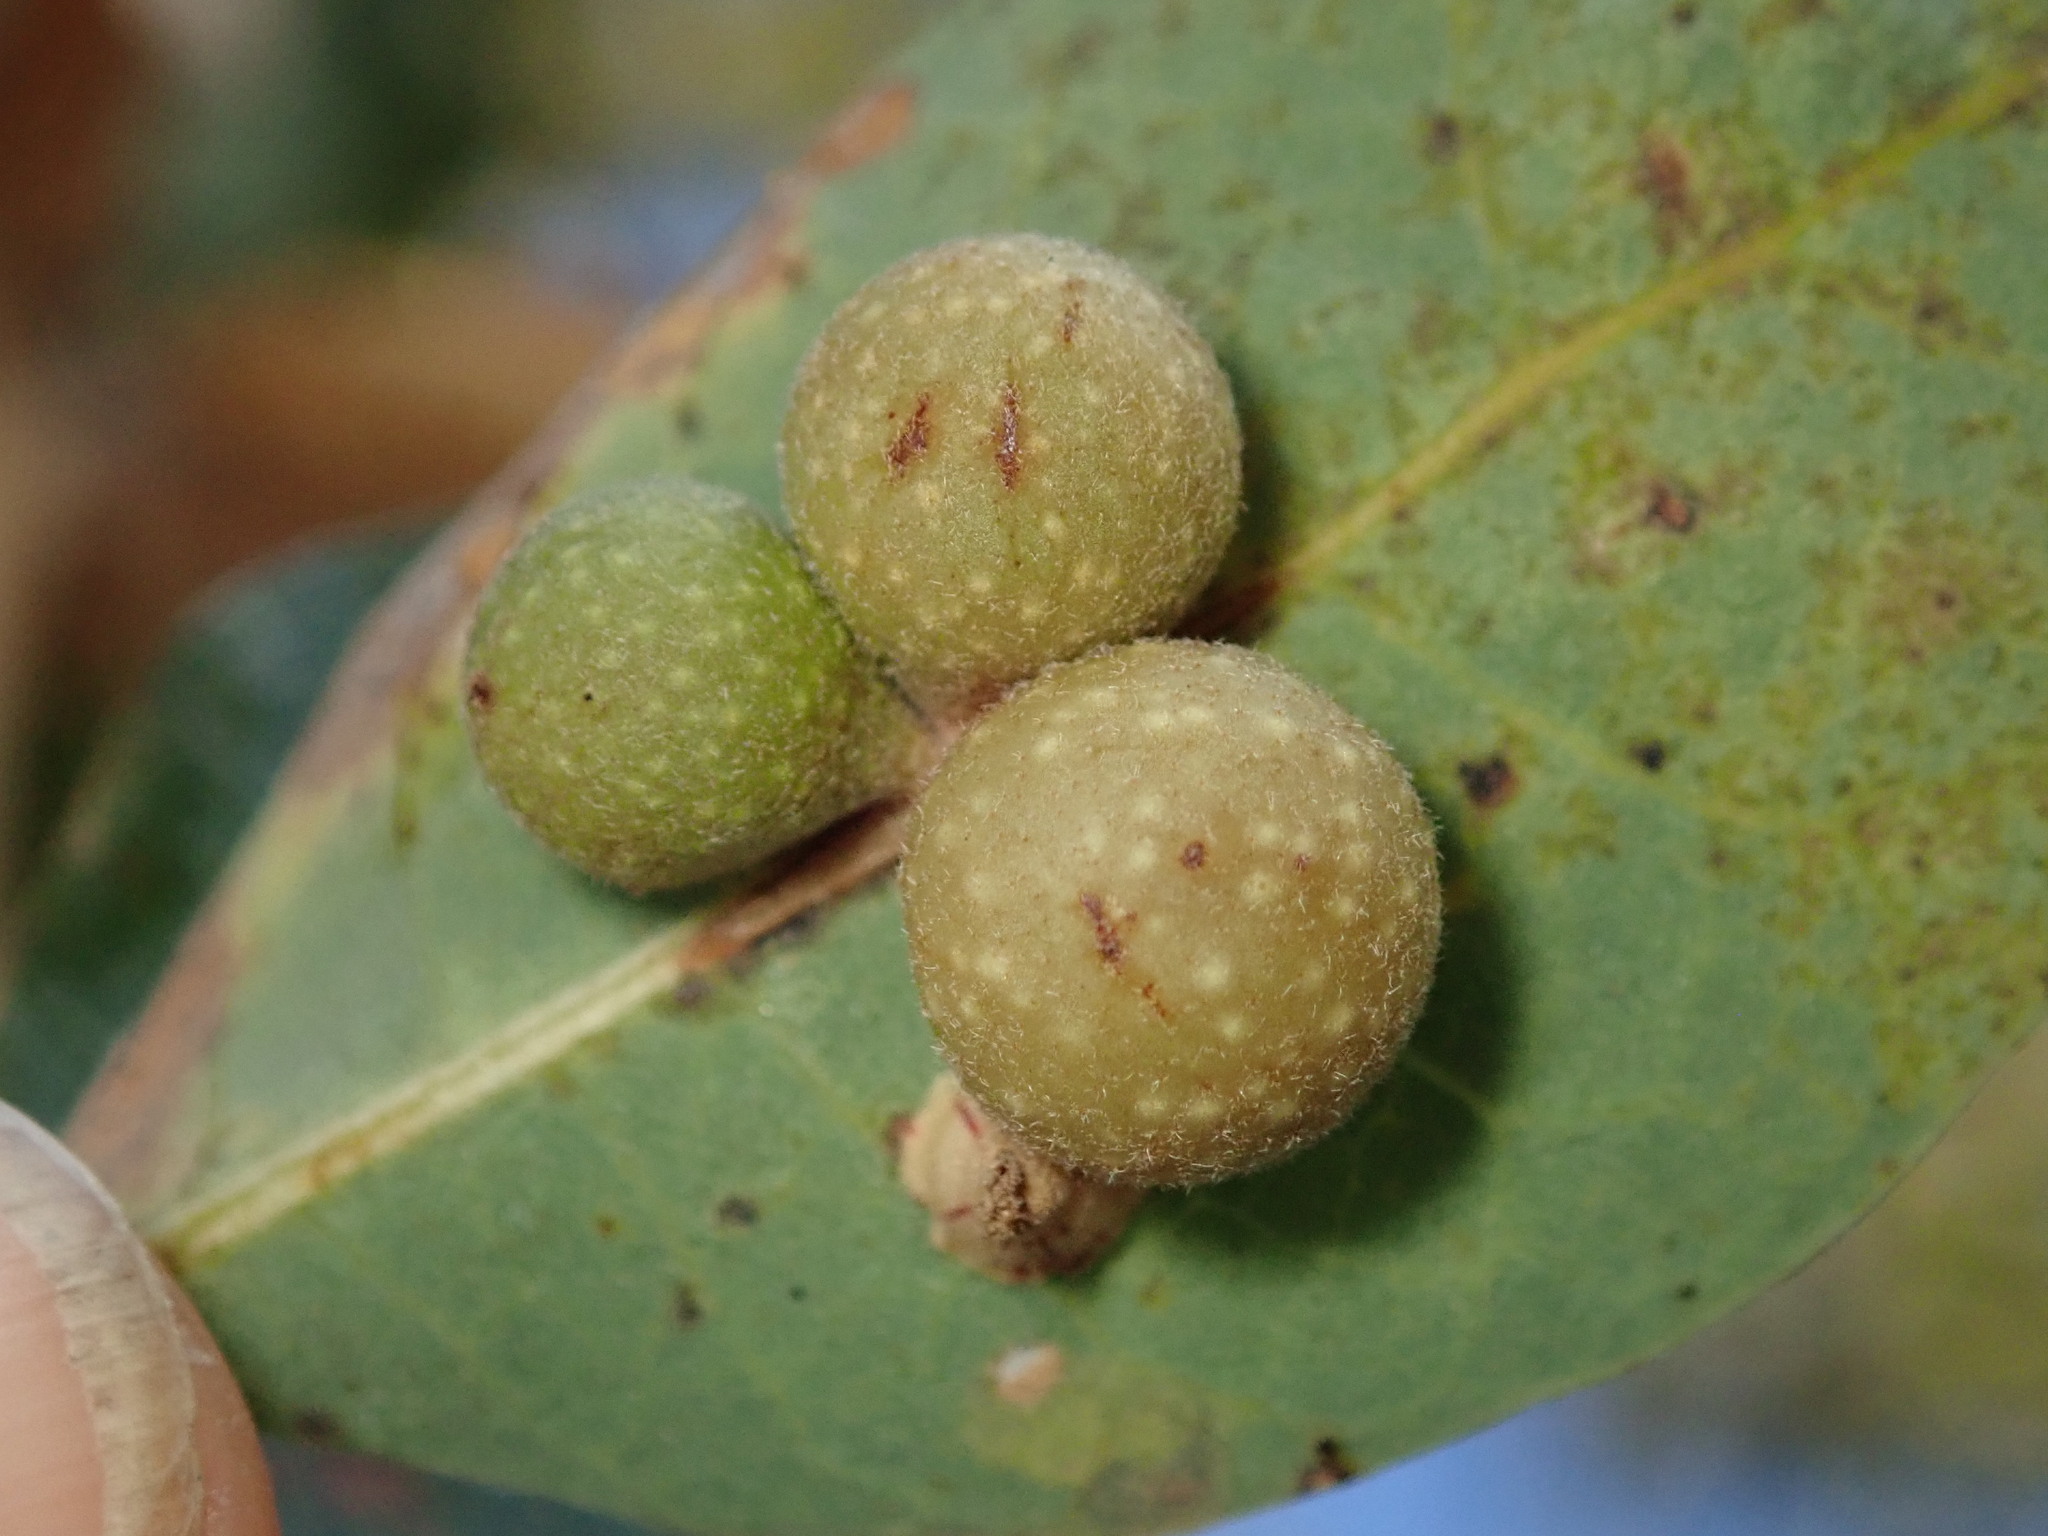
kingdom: Animalia
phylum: Arthropoda
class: Insecta
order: Hymenoptera
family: Cynipidae
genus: Andricus
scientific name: Andricus
